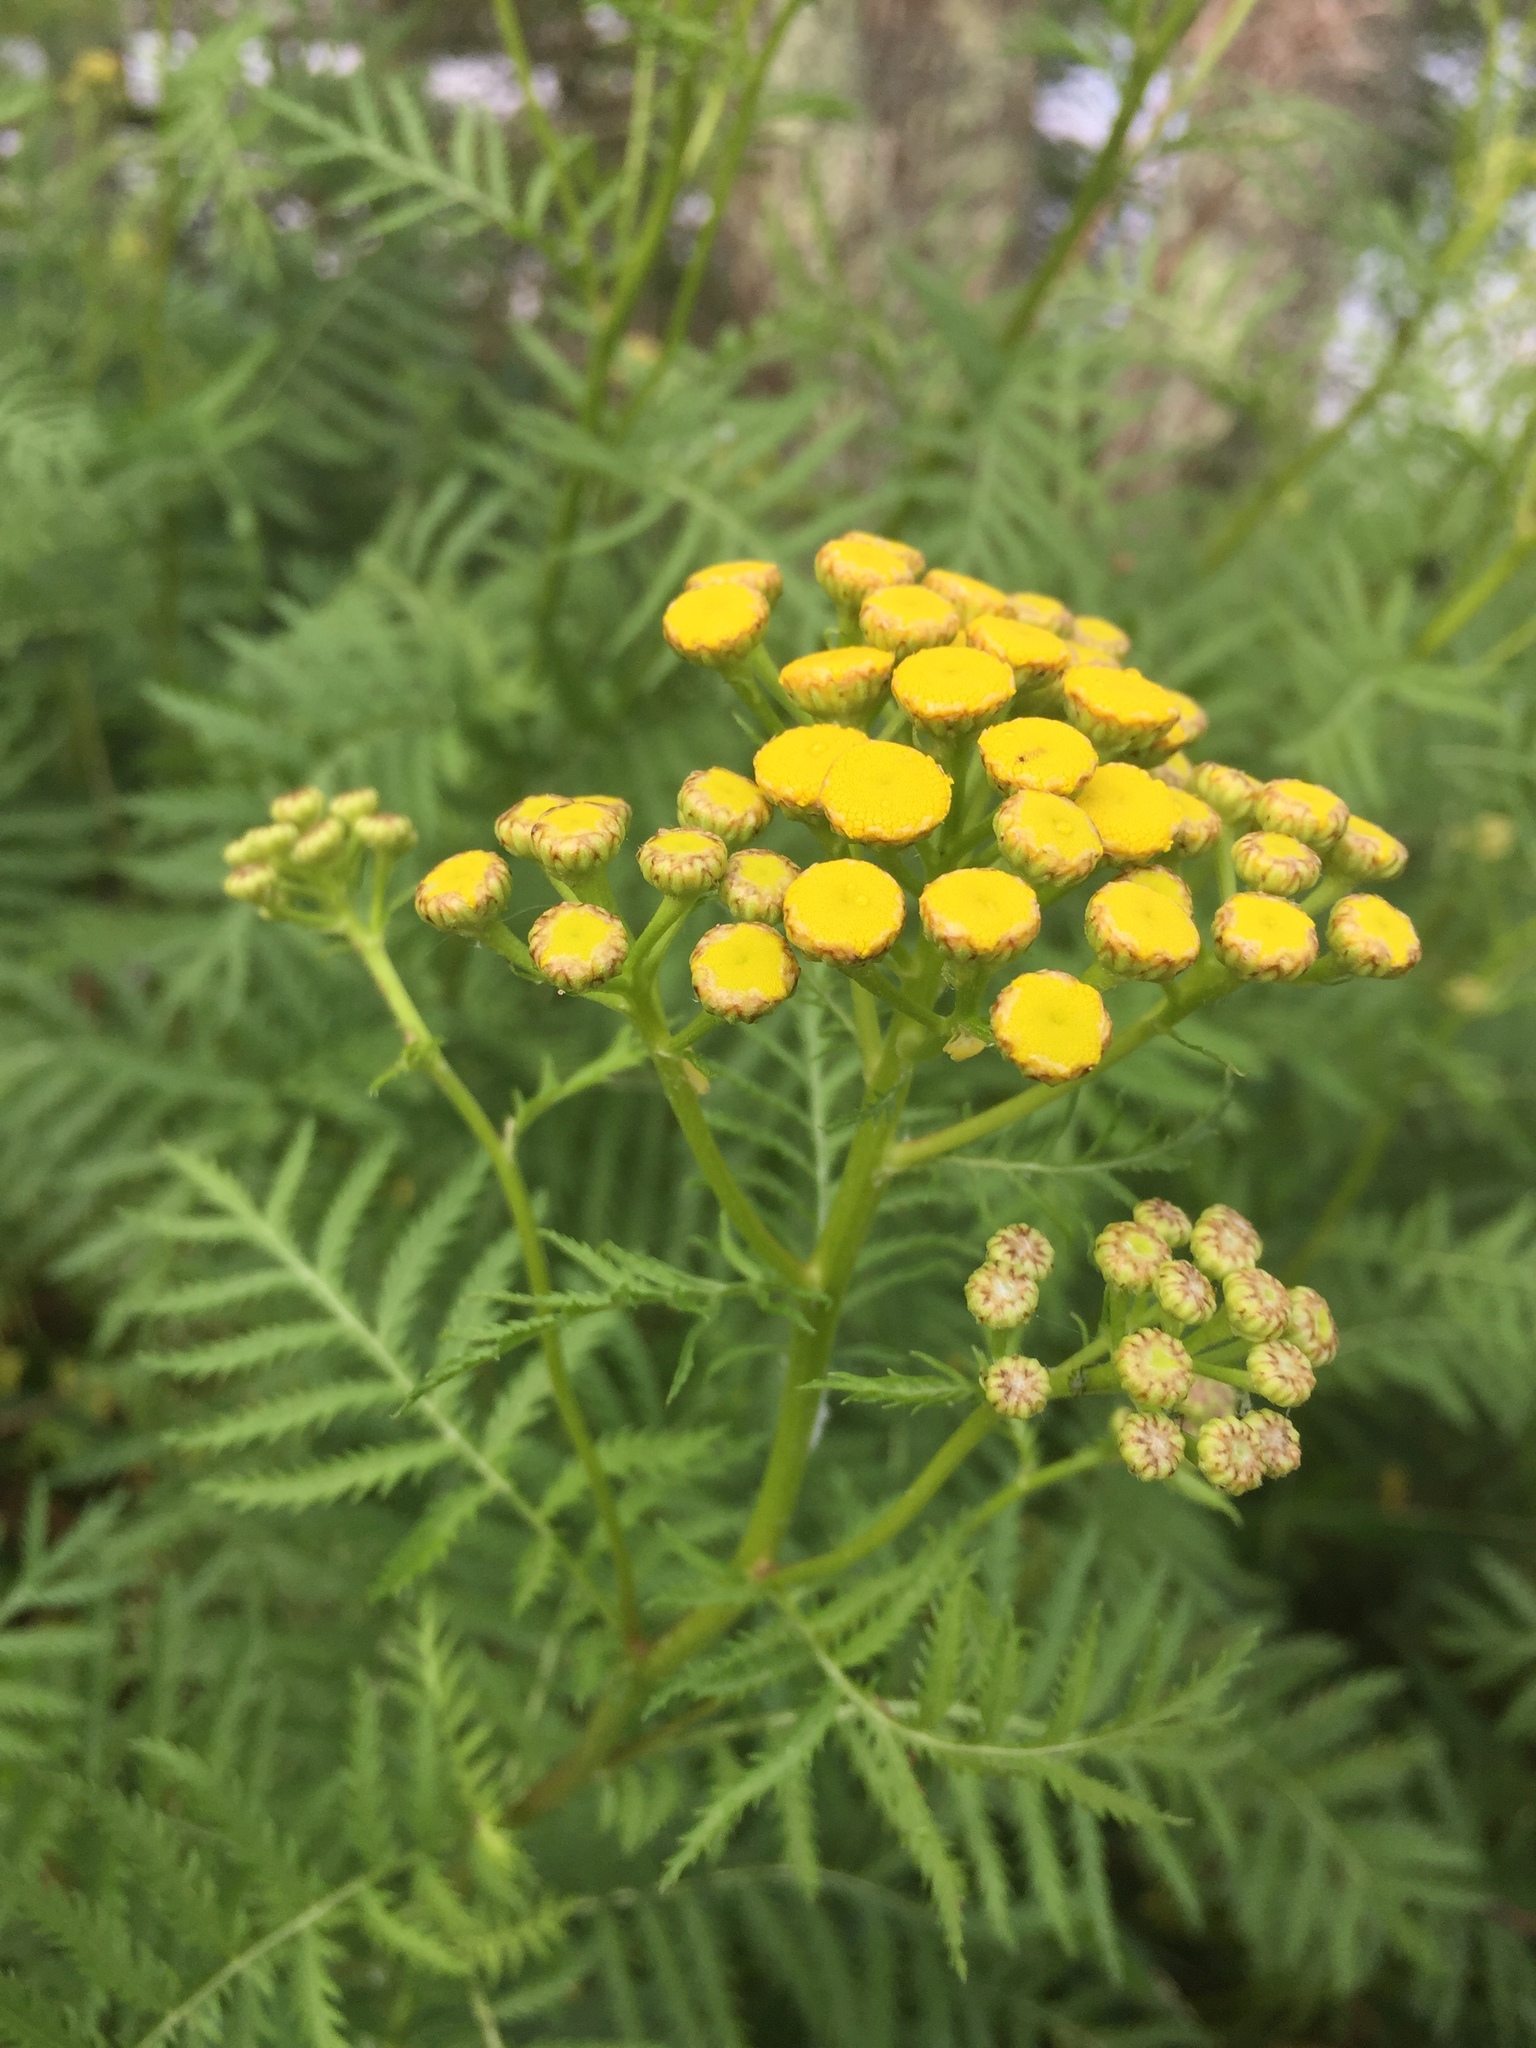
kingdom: Plantae
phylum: Tracheophyta
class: Magnoliopsida
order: Asterales
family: Asteraceae
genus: Tanacetum
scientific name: Tanacetum vulgare
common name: Common tansy
